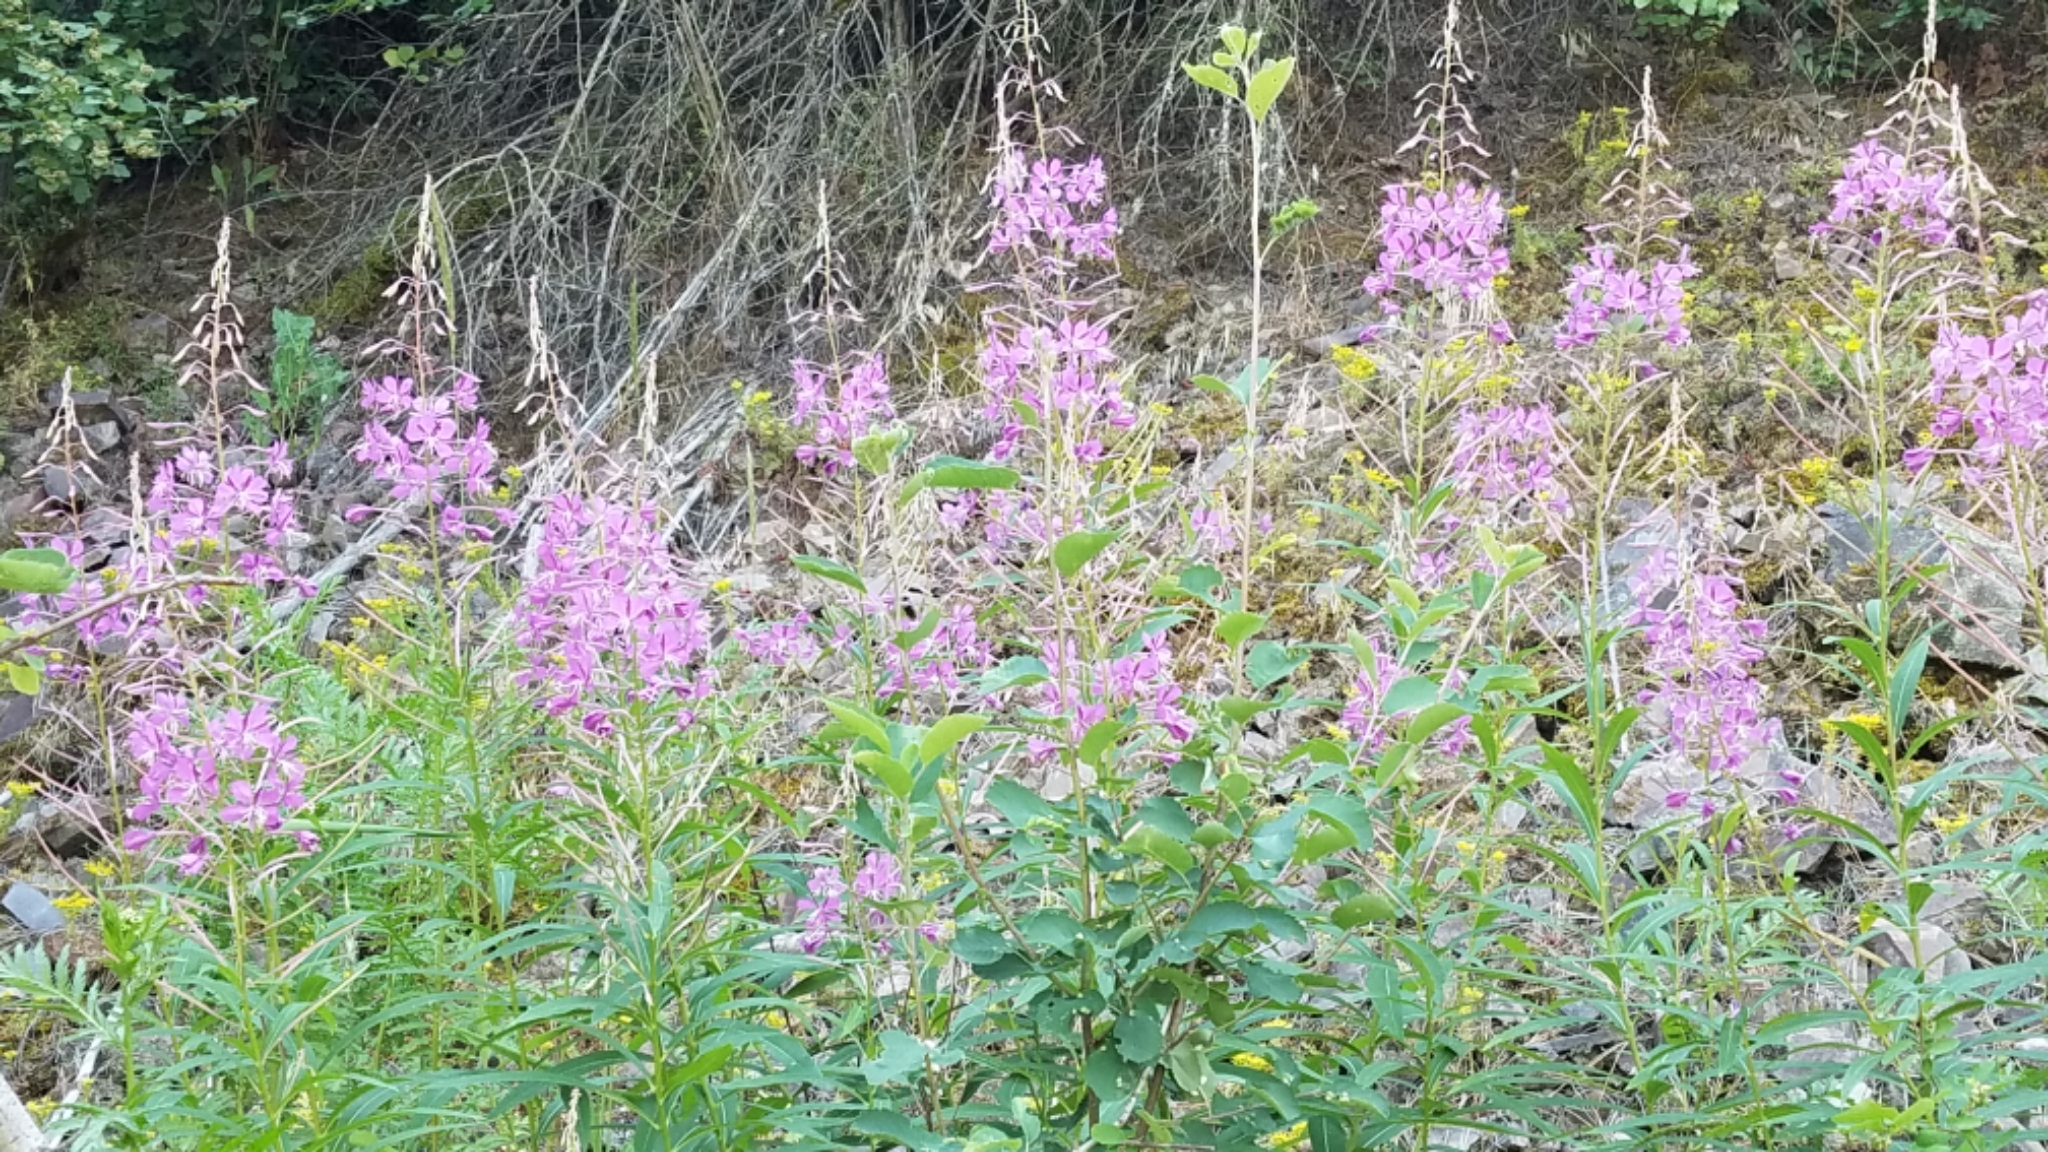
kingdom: Plantae
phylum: Tracheophyta
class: Magnoliopsida
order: Myrtales
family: Onagraceae
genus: Chamaenerion
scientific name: Chamaenerion angustifolium
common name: Fireweed
